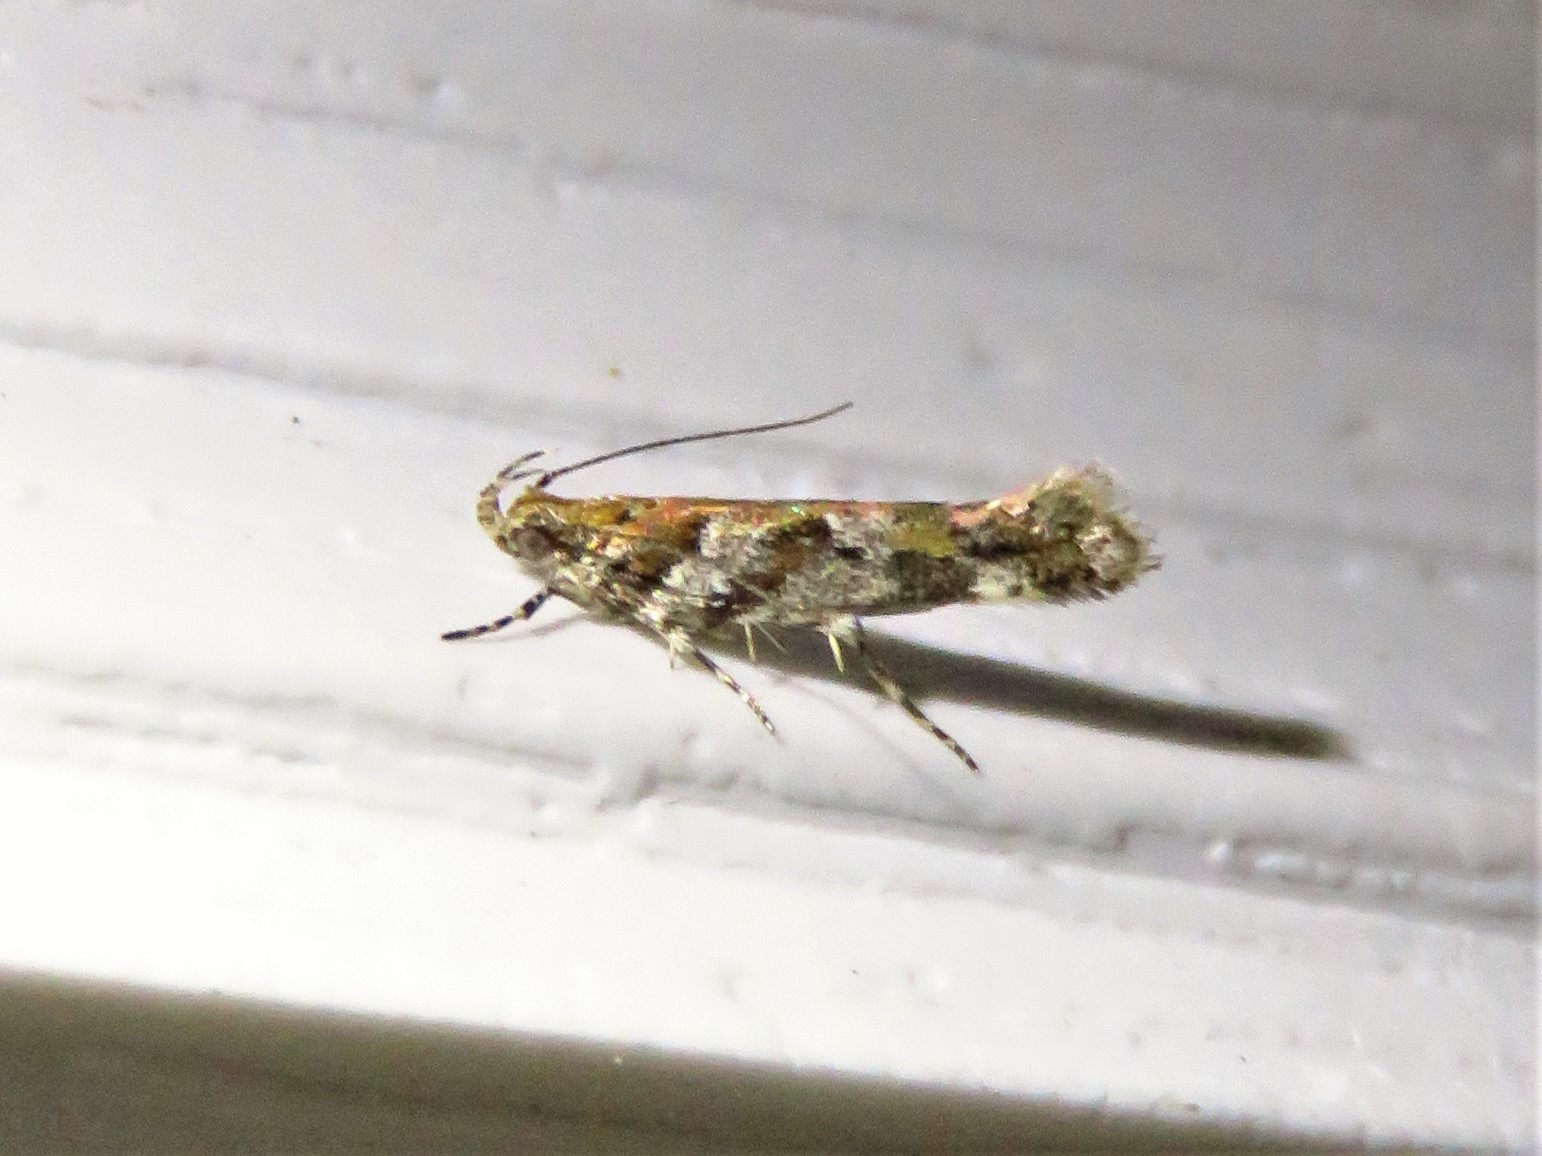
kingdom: Animalia
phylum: Arthropoda
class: Insecta
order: Lepidoptera
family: Gelechiidae
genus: Aristotelia
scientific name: Aristotelia roseosuffusella
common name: Pink-washed aristotelia moth
